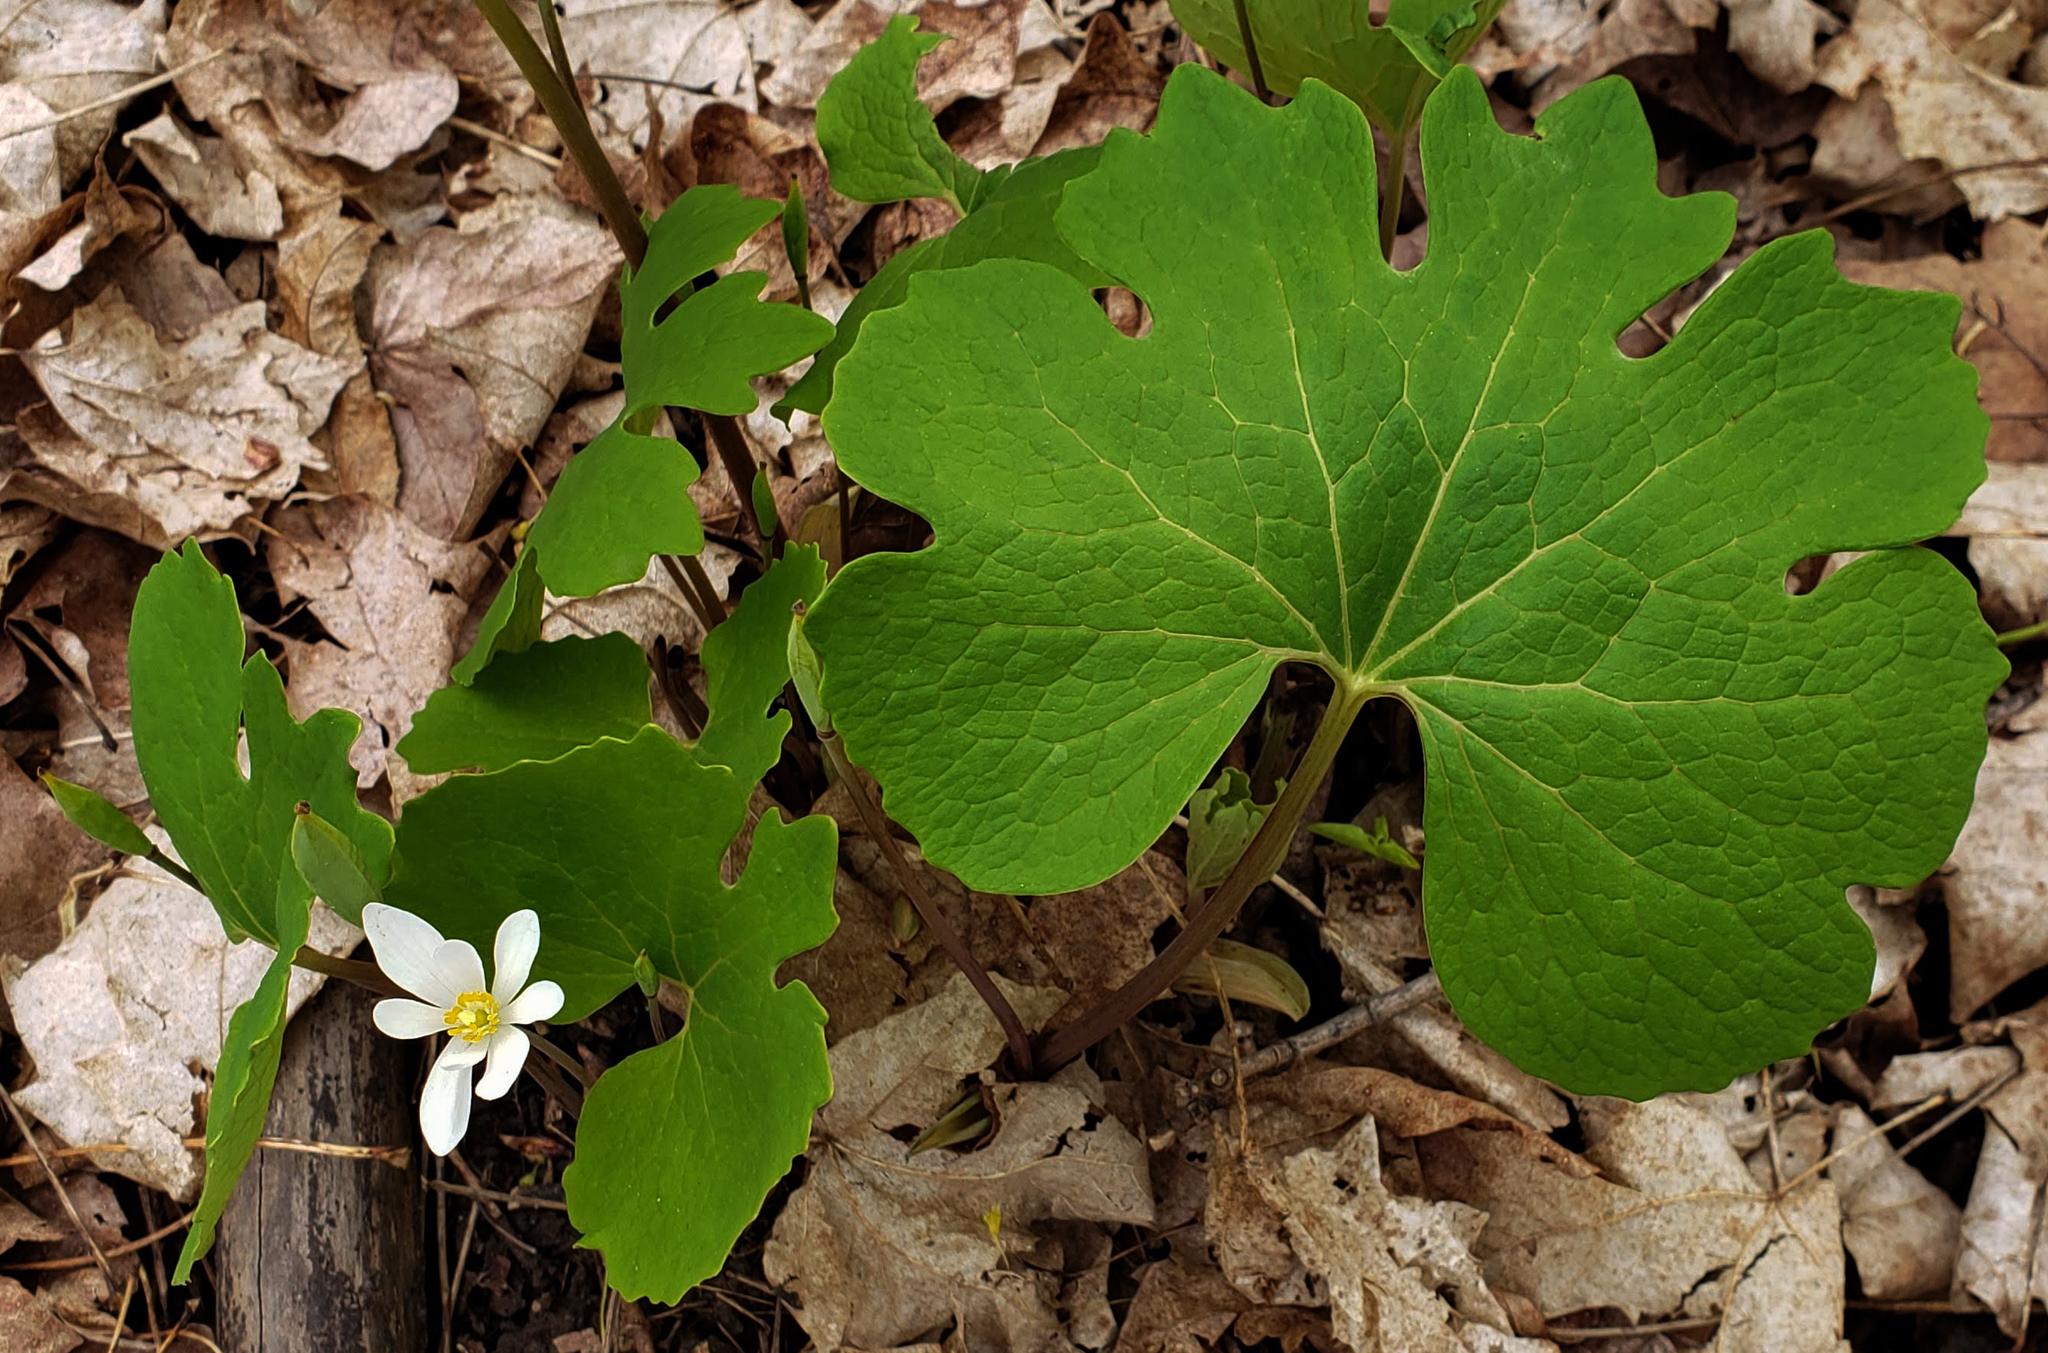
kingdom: Plantae
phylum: Tracheophyta
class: Magnoliopsida
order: Ranunculales
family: Papaveraceae
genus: Sanguinaria
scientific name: Sanguinaria canadensis
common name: Bloodroot
